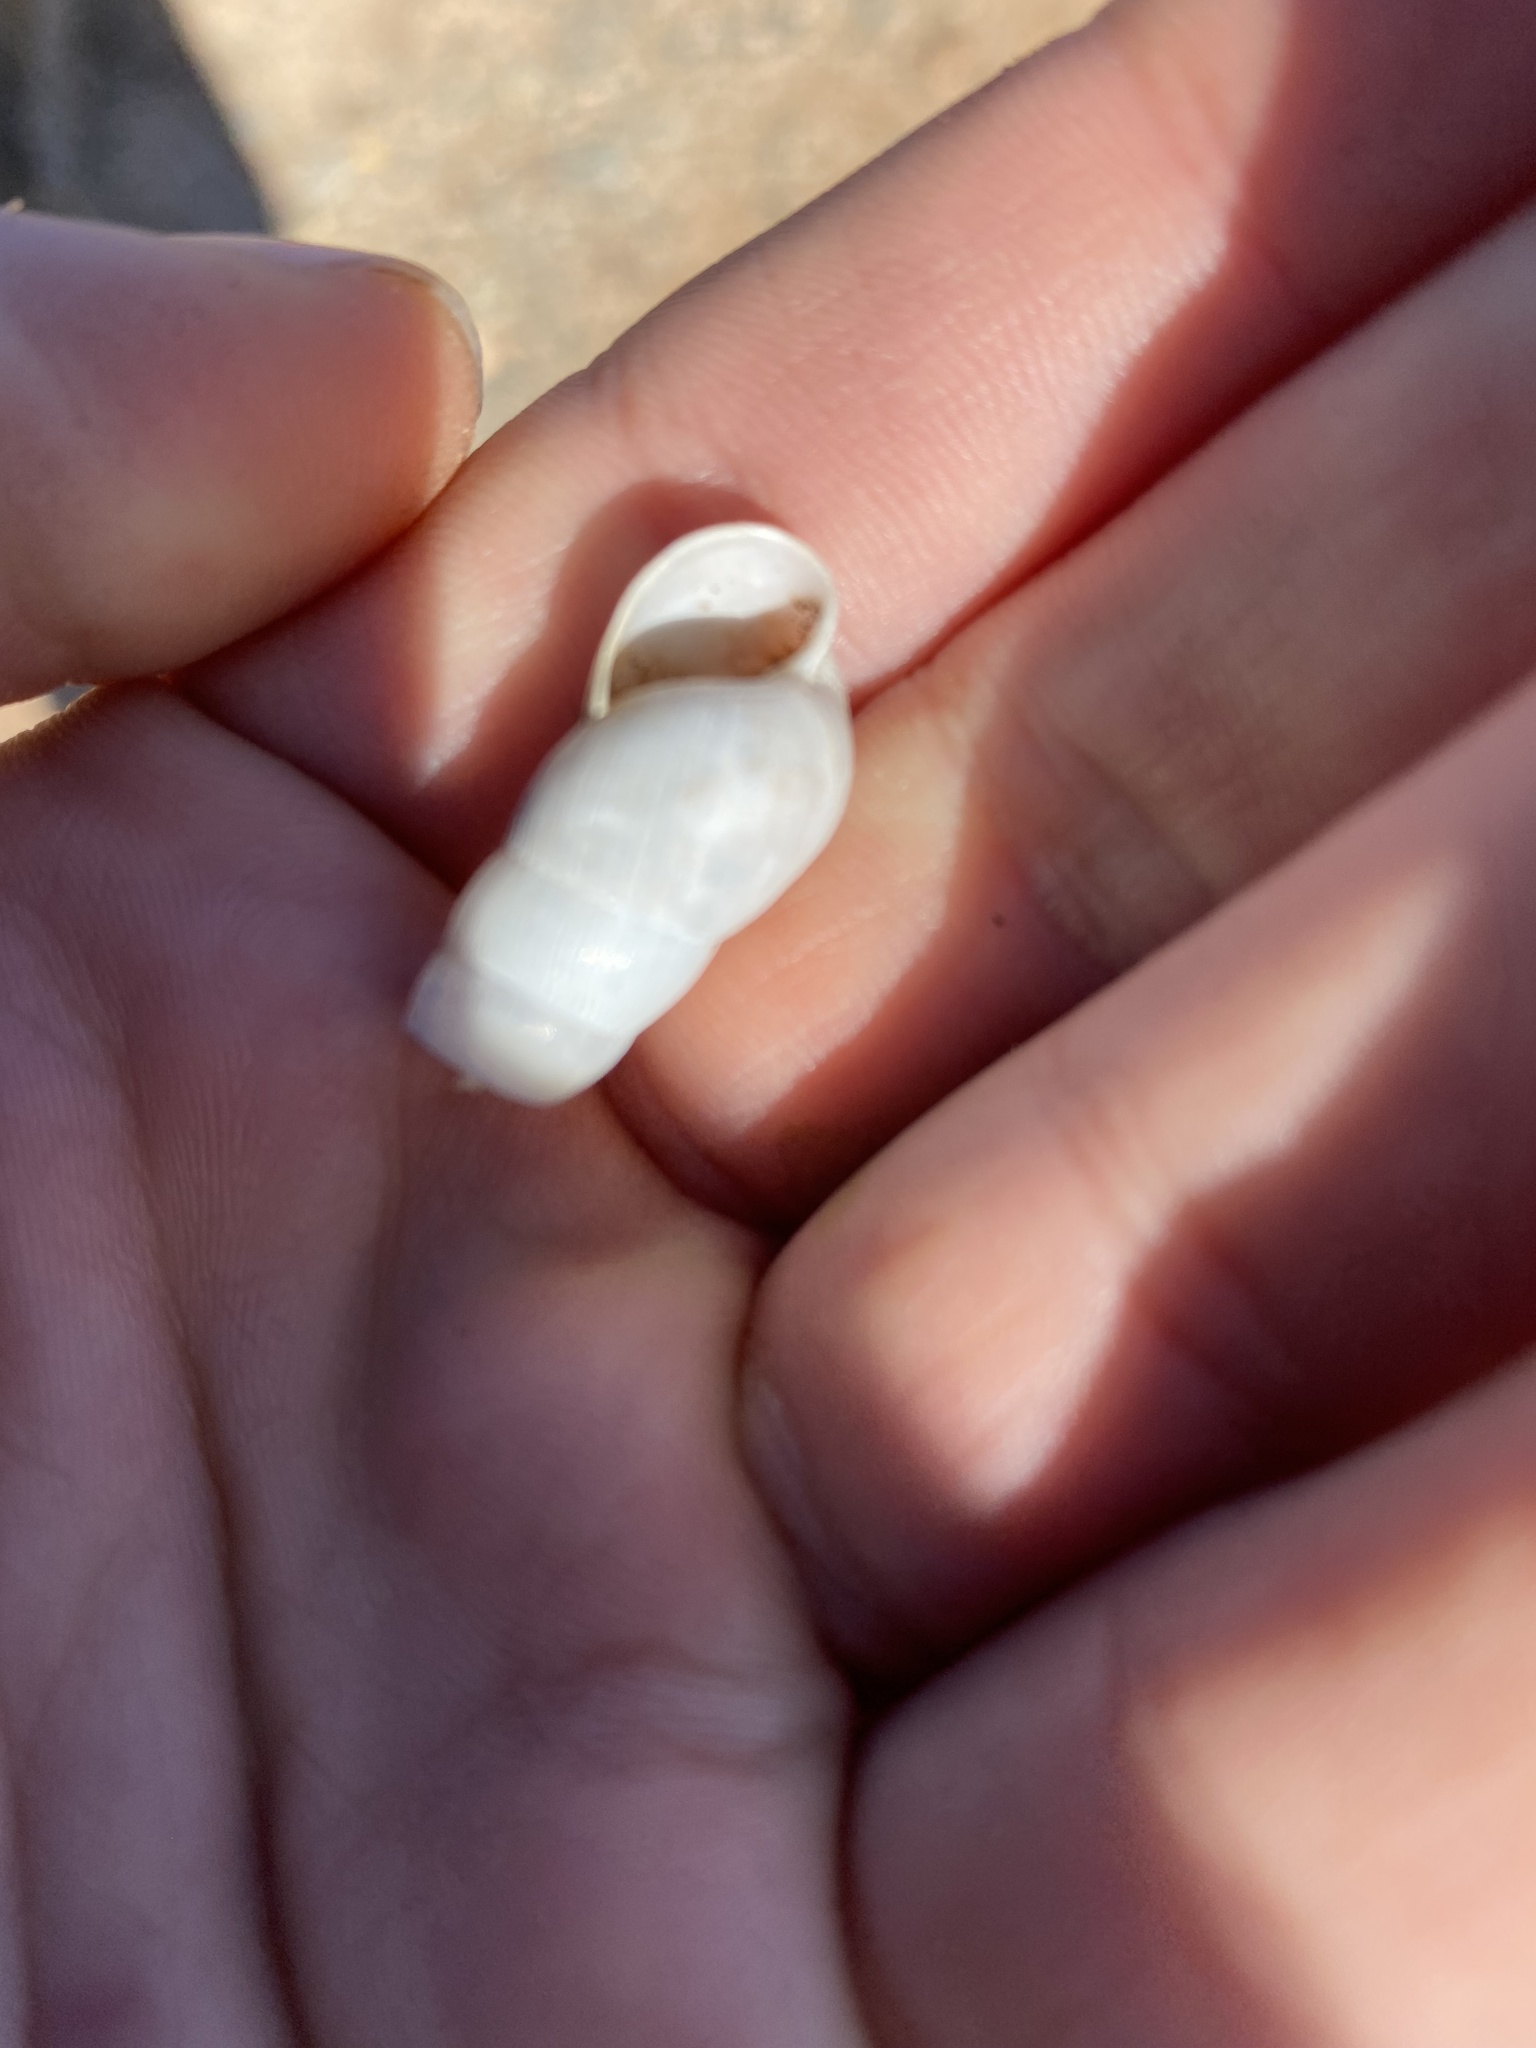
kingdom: Animalia
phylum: Mollusca
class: Gastropoda
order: Stylommatophora
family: Achatinidae
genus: Rumina
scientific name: Rumina decollata
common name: Decollate snail
